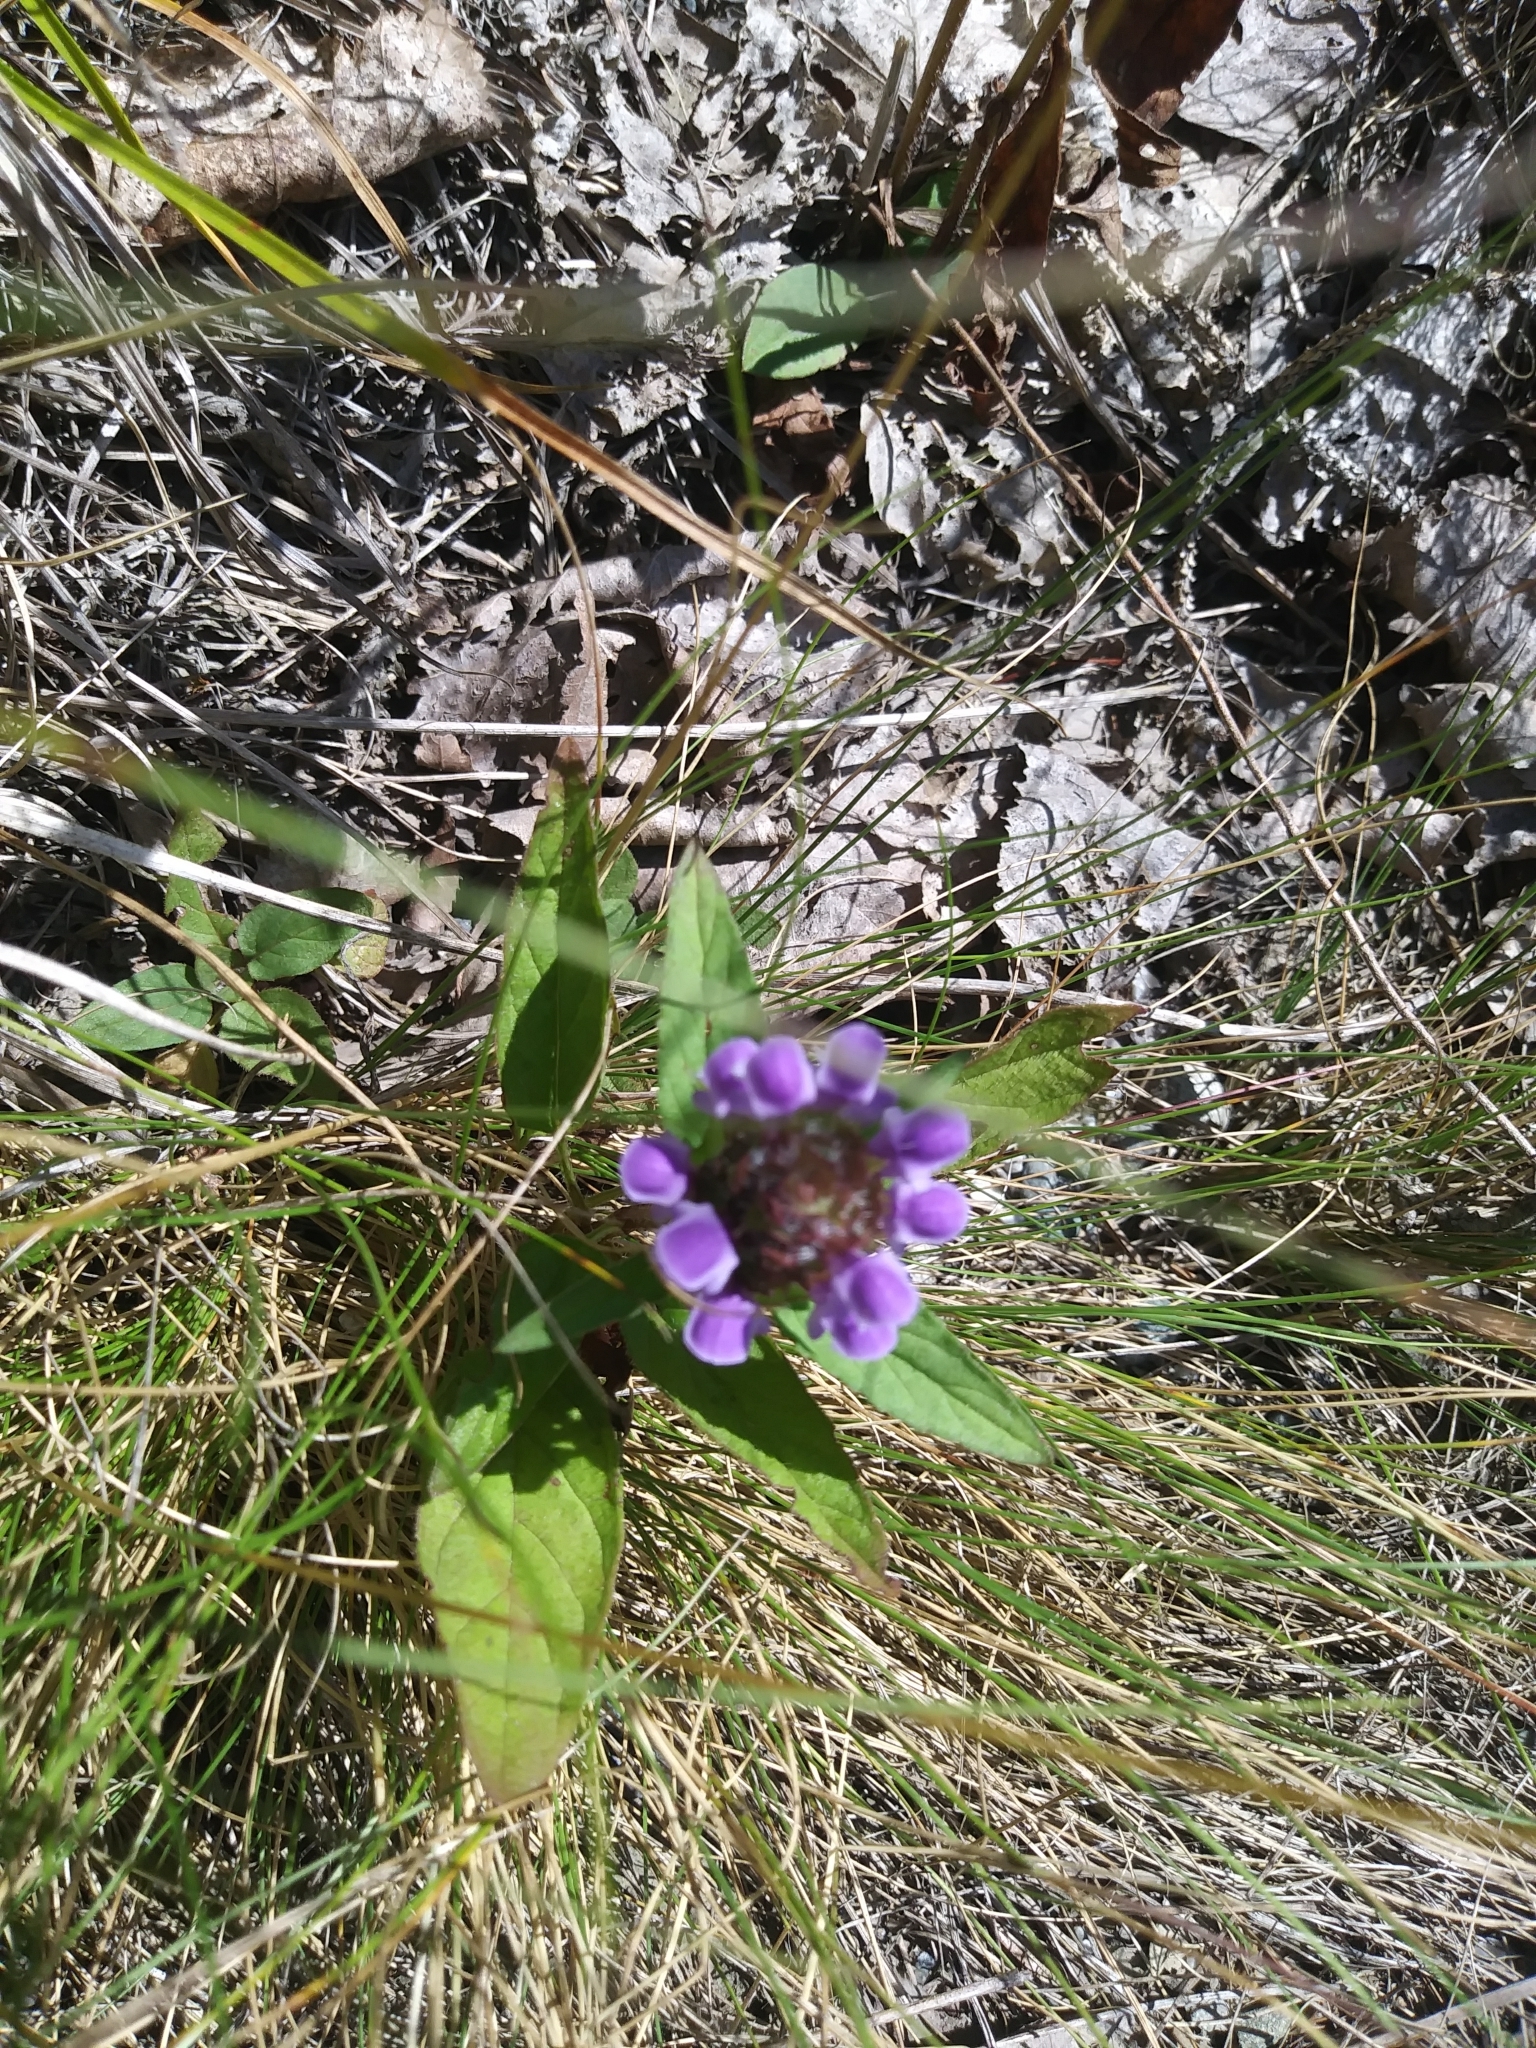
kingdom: Plantae
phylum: Tracheophyta
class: Magnoliopsida
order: Lamiales
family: Lamiaceae
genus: Prunella
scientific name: Prunella vulgaris
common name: Heal-all
